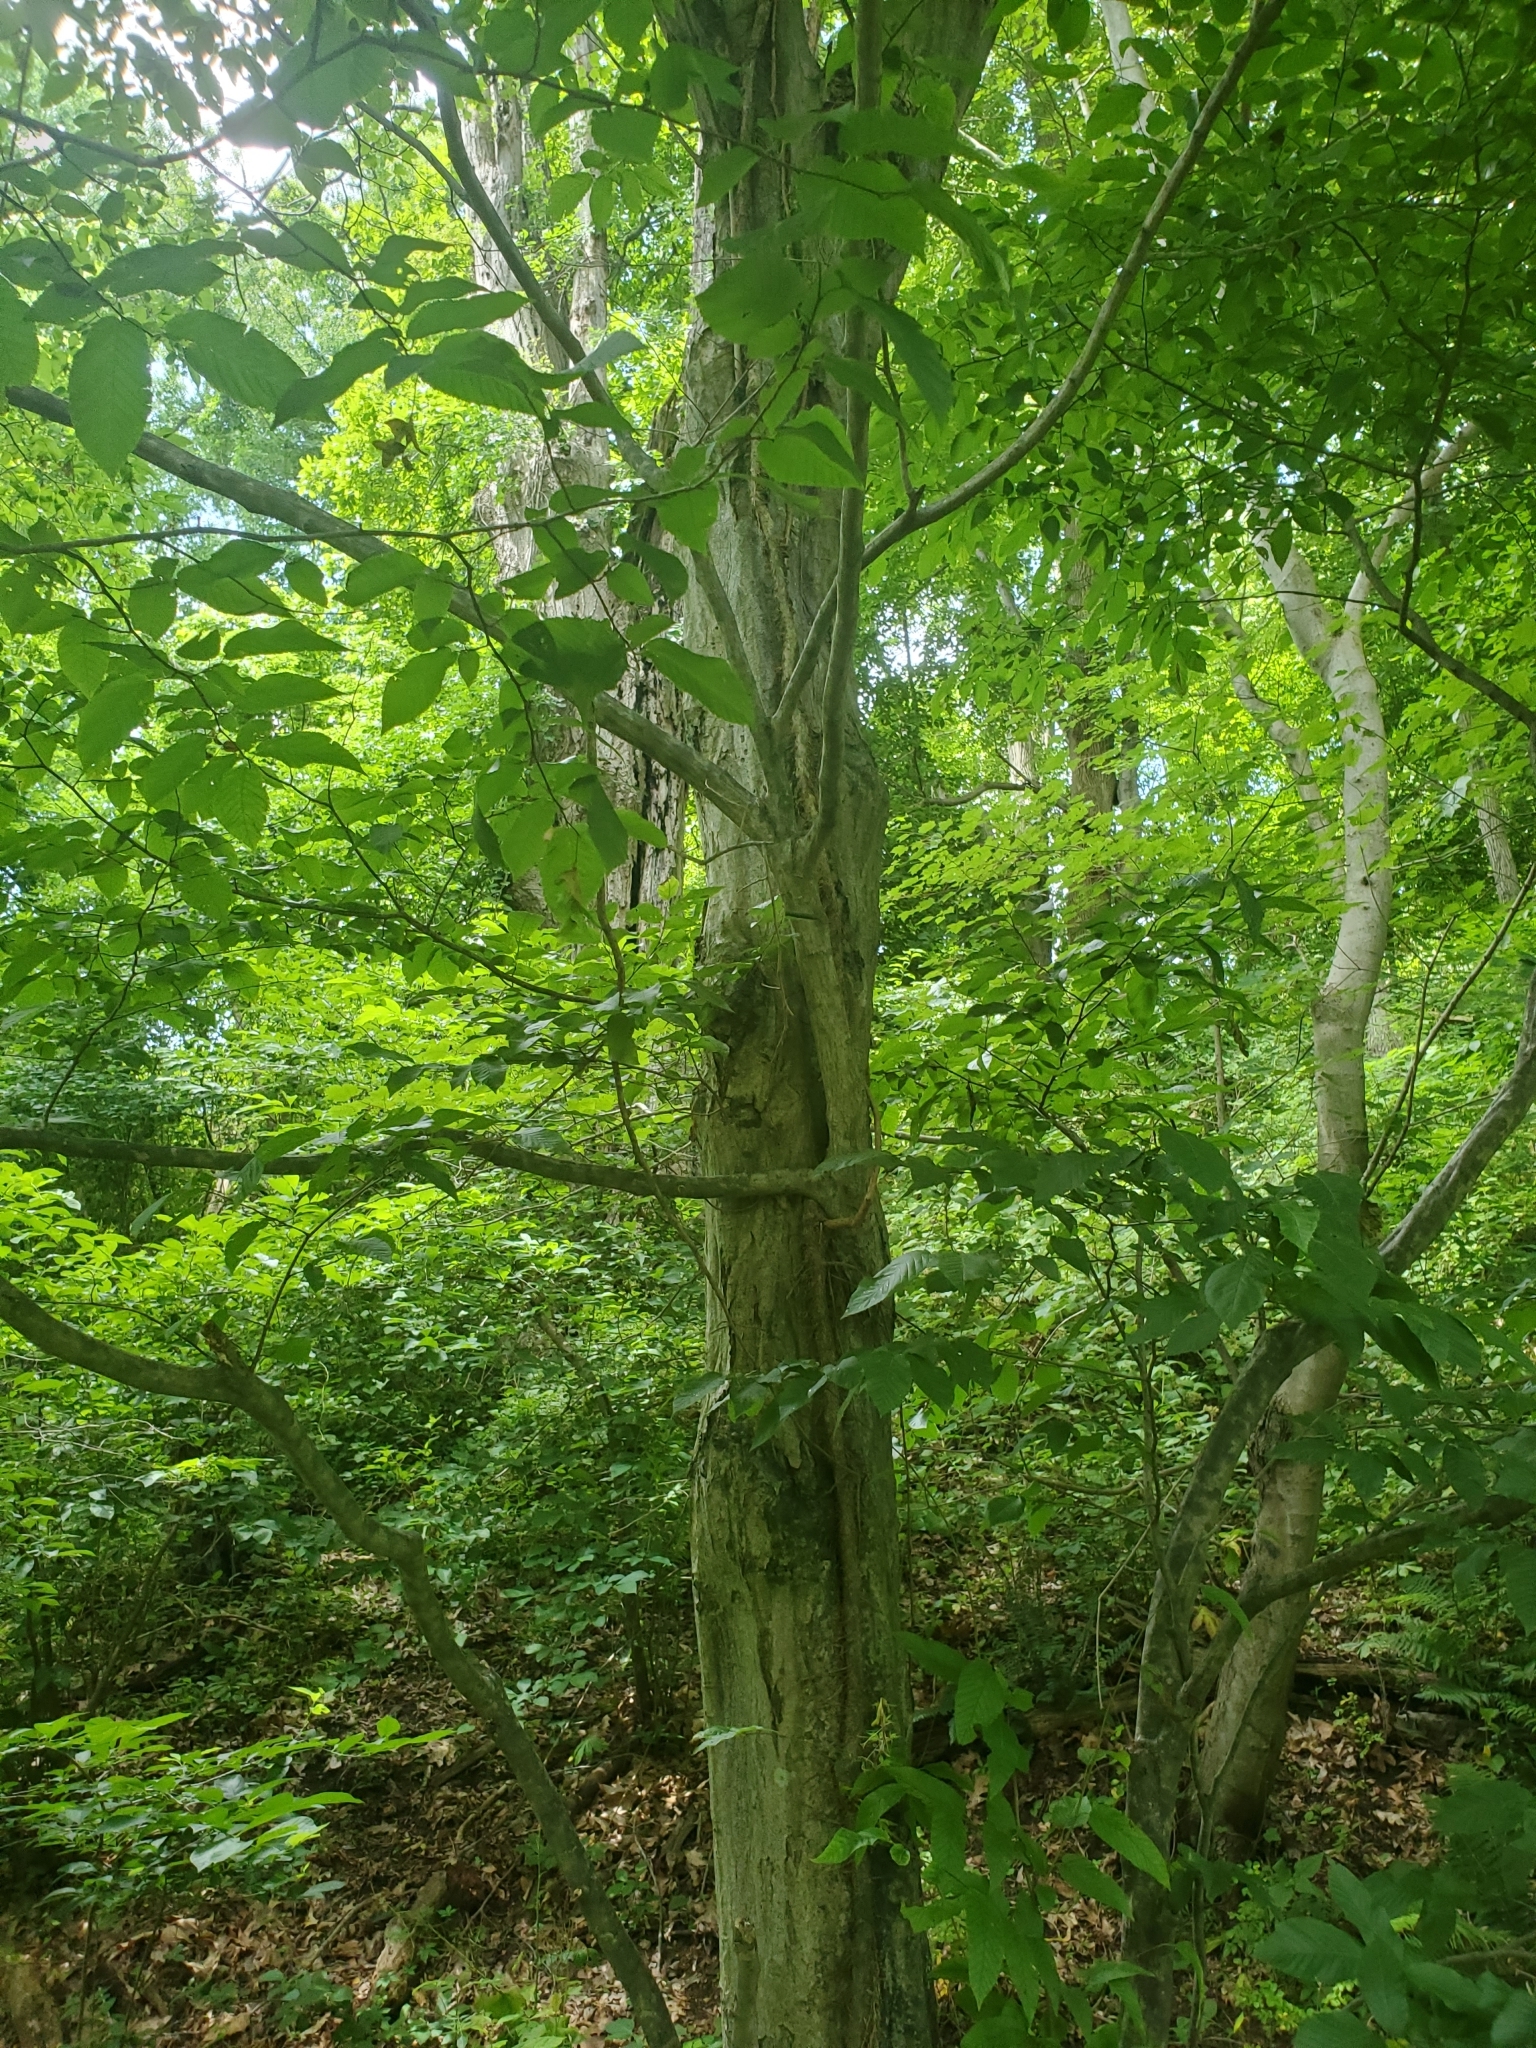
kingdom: Plantae
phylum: Tracheophyta
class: Magnoliopsida
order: Fagales
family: Betulaceae
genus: Carpinus
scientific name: Carpinus caroliniana
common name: American hornbeam
